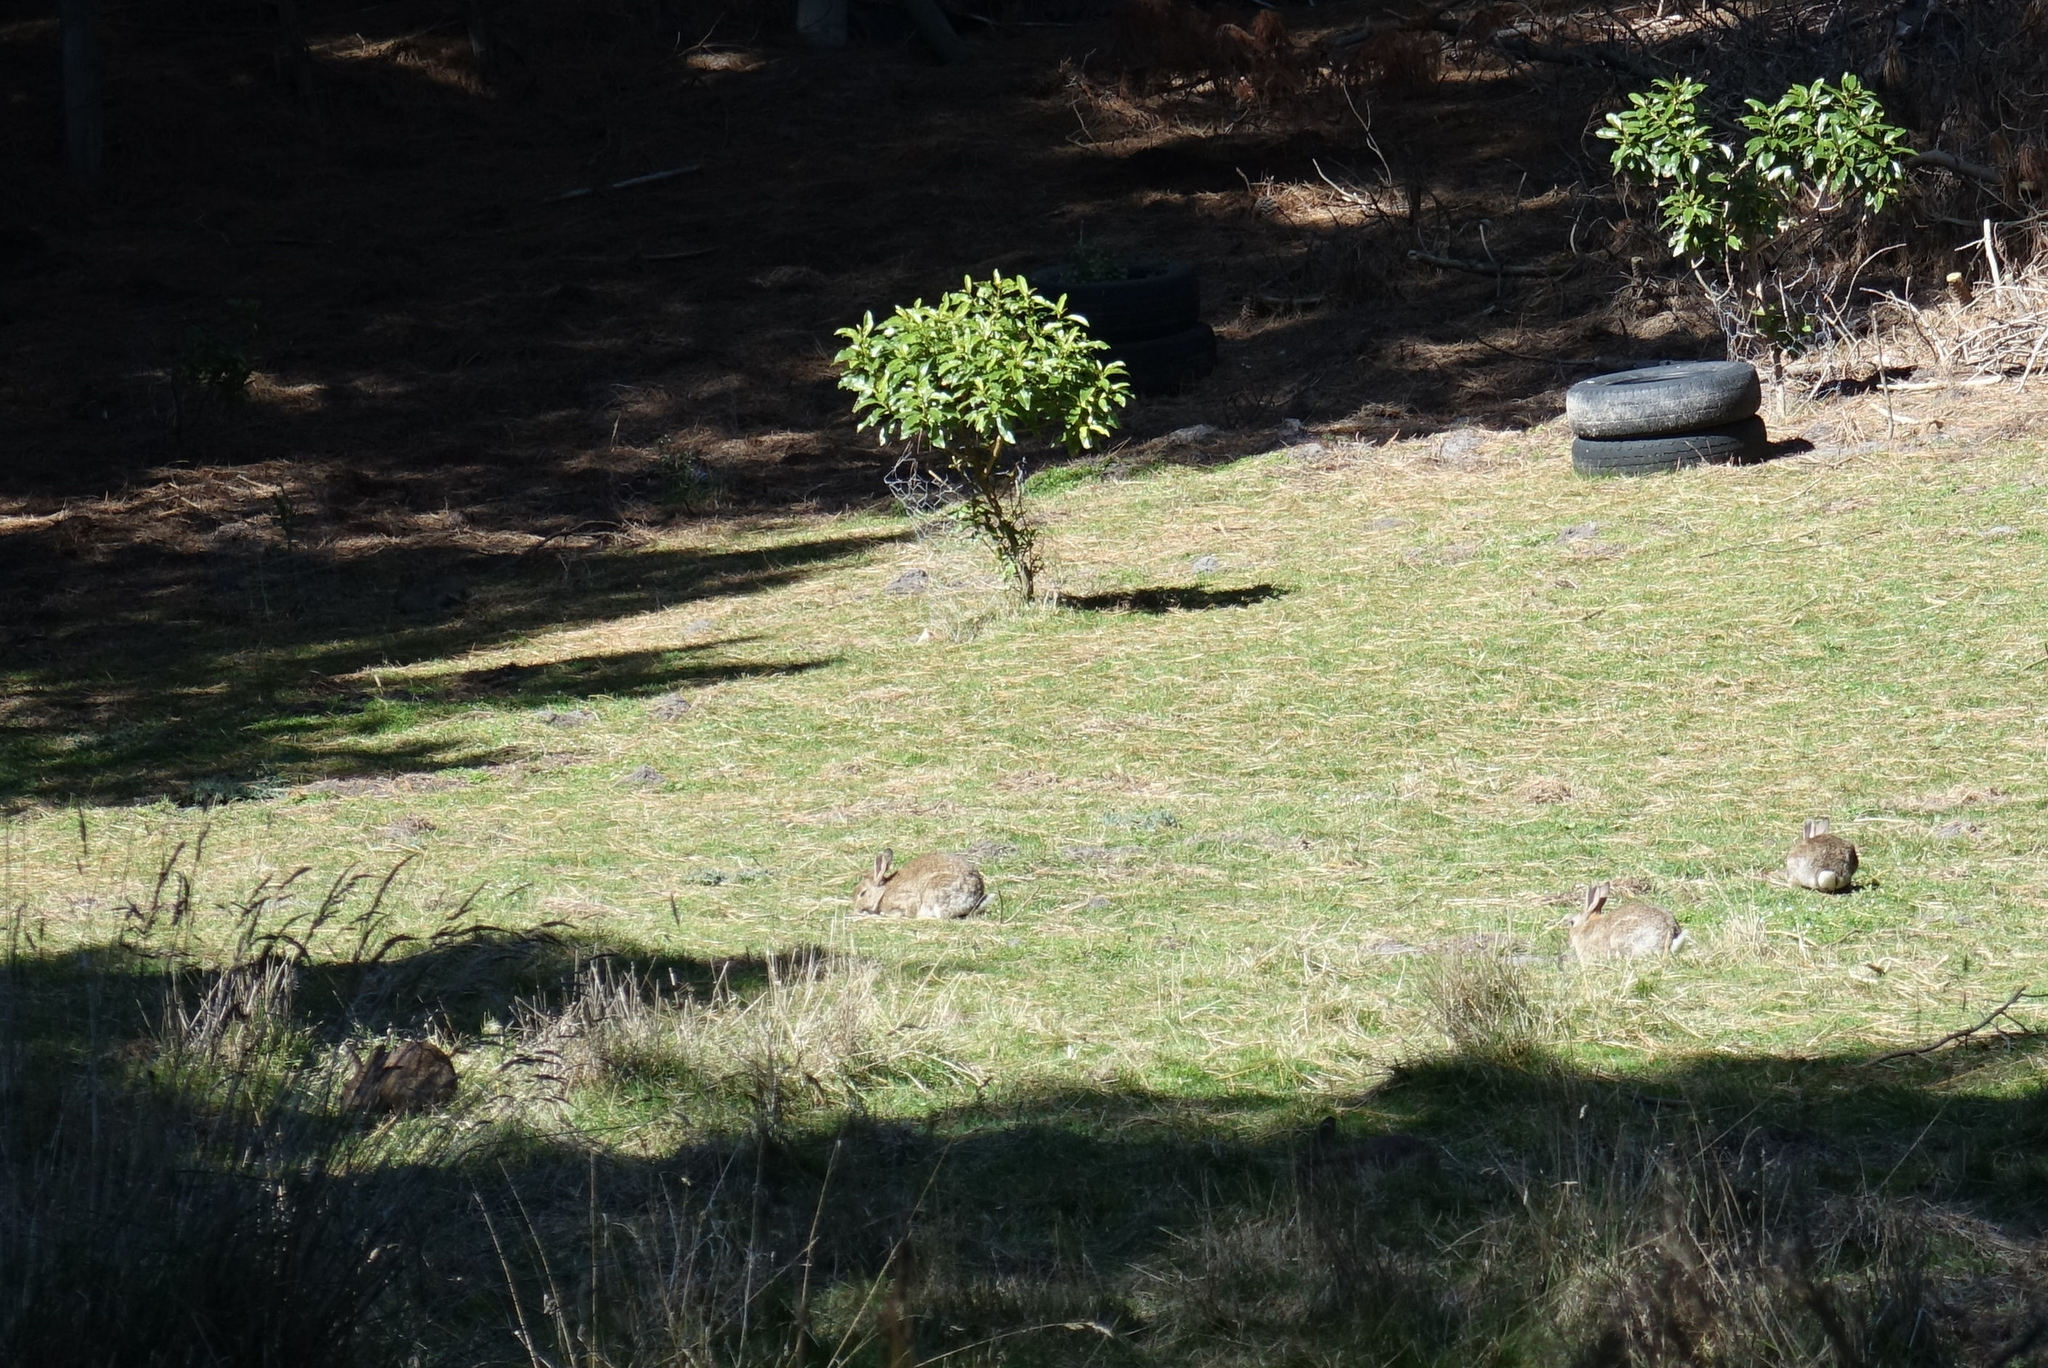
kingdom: Animalia
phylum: Chordata
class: Mammalia
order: Lagomorpha
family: Leporidae
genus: Oryctolagus
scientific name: Oryctolagus cuniculus
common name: European rabbit
